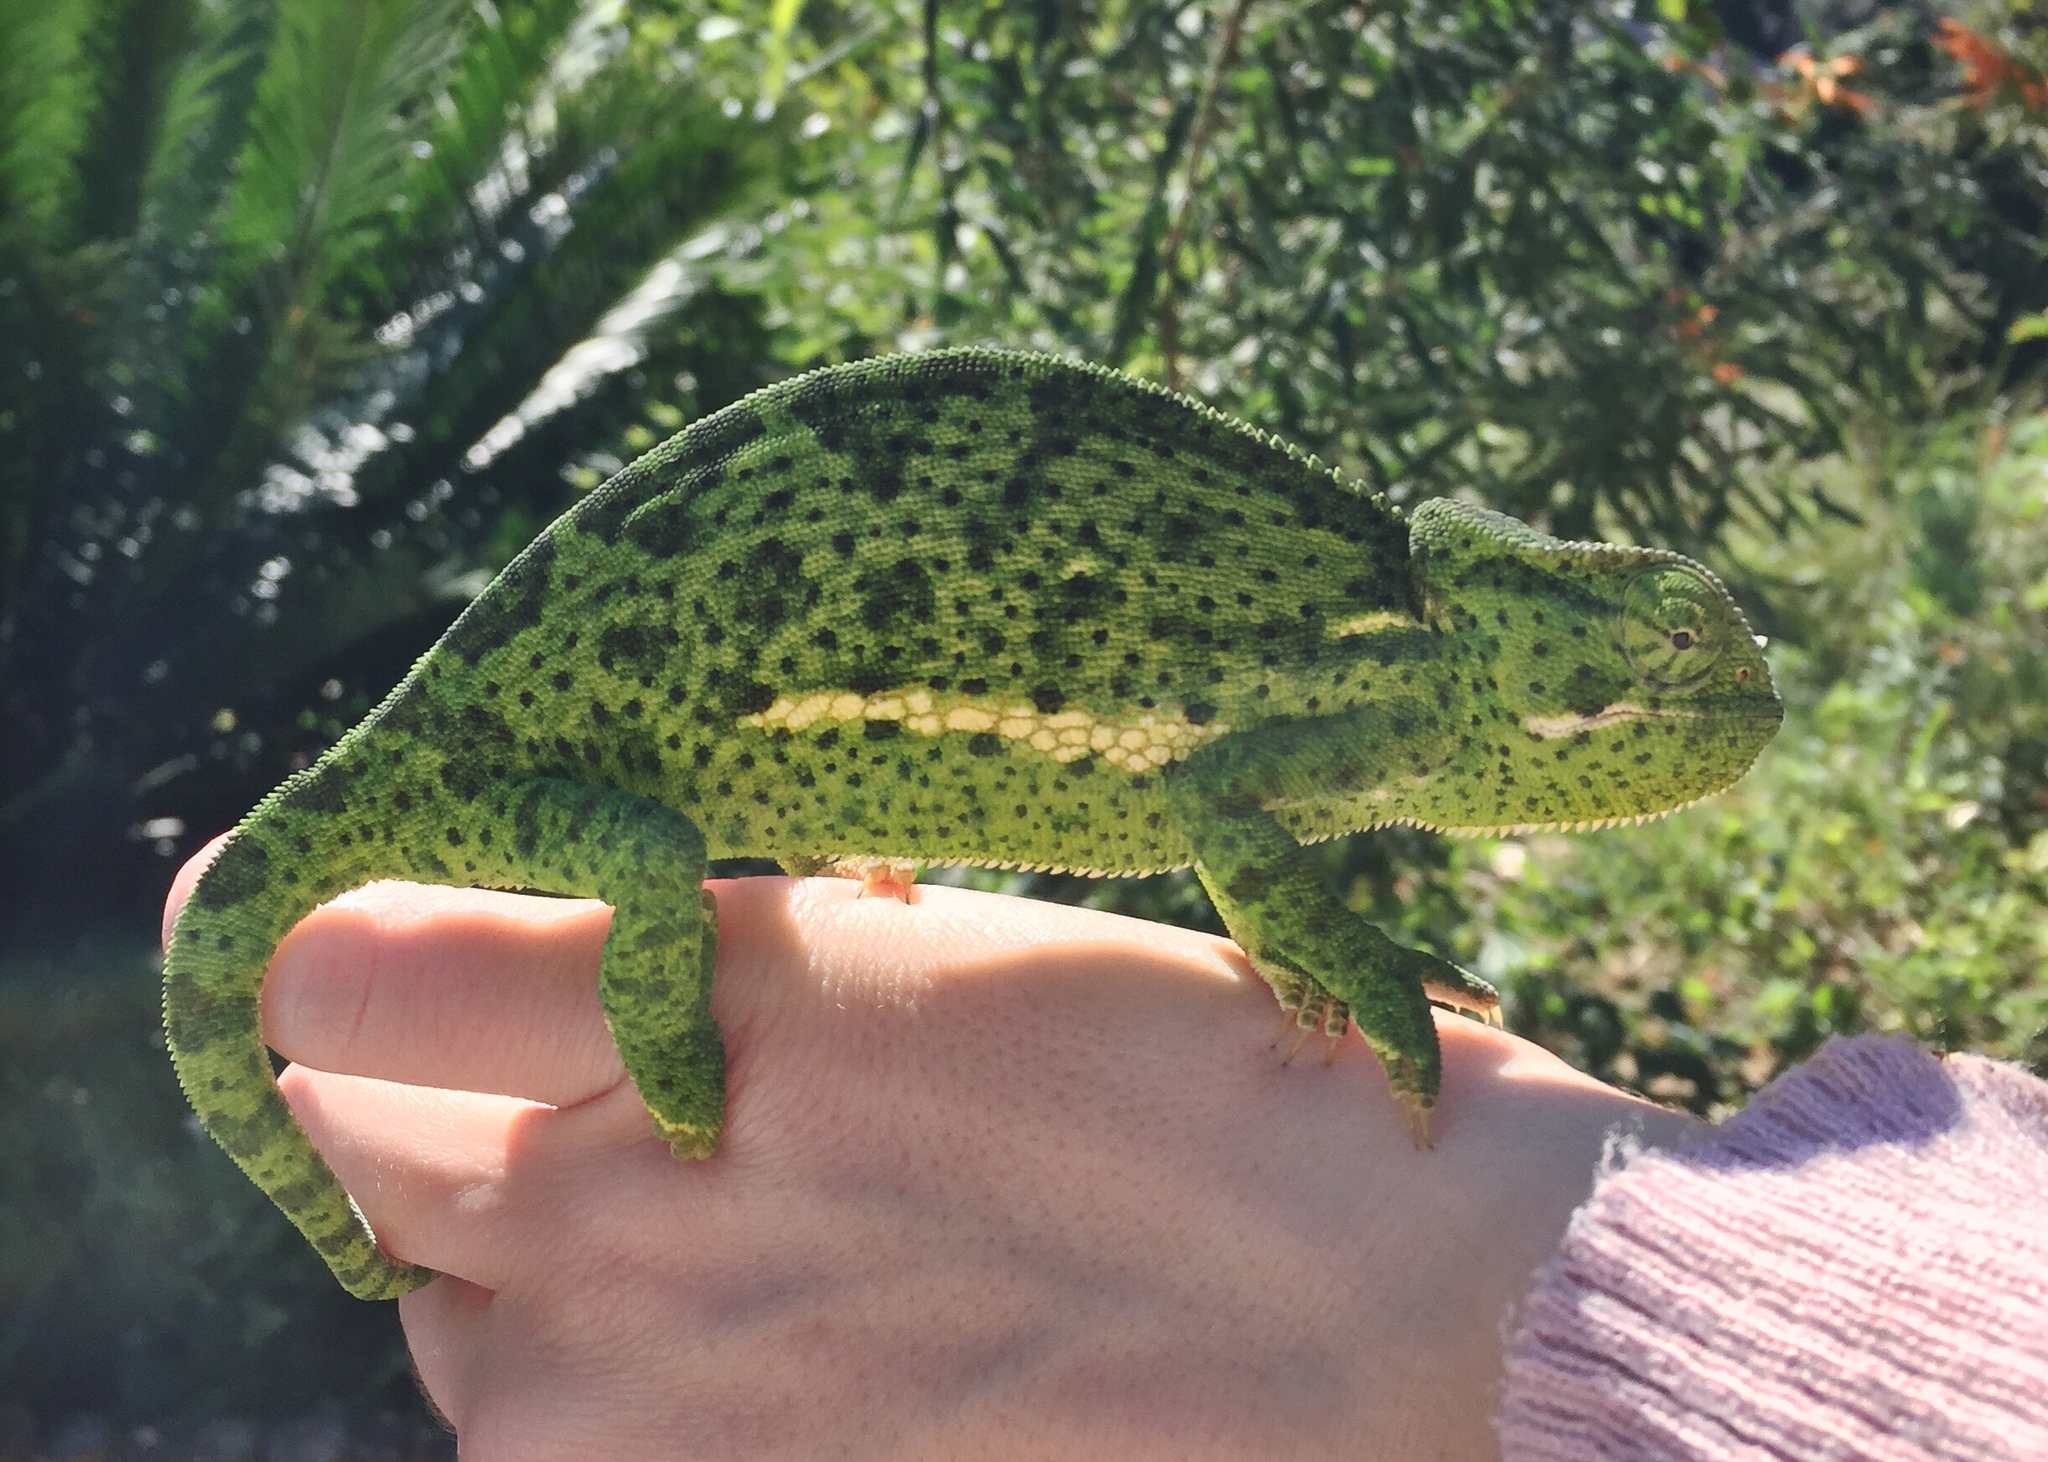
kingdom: Animalia
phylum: Chordata
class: Squamata
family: Chamaeleonidae
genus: Chamaeleo
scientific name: Chamaeleo dilepis
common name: Flapneck chameleon
